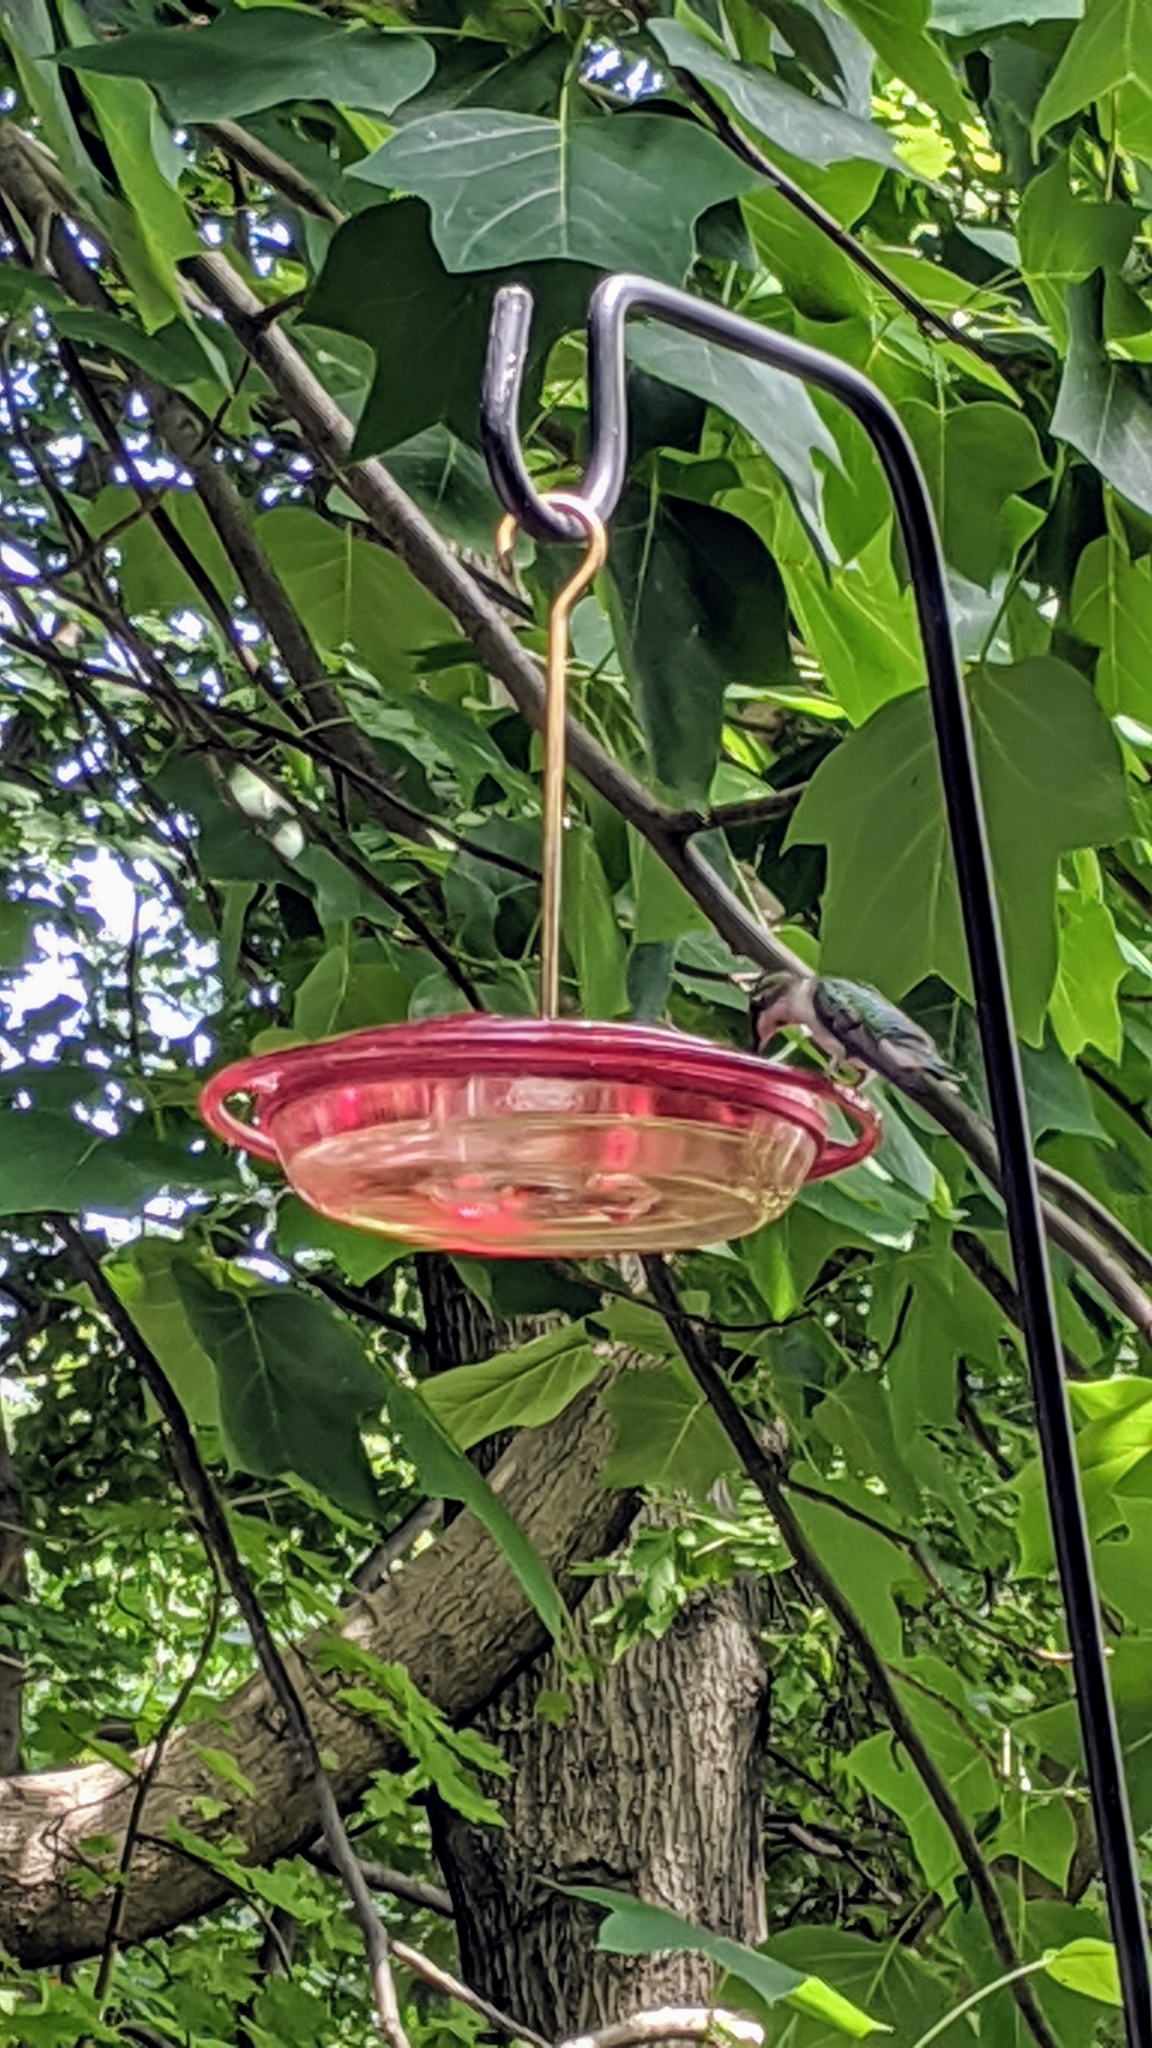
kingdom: Animalia
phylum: Chordata
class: Aves
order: Apodiformes
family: Trochilidae
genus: Archilochus
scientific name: Archilochus colubris
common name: Ruby-throated hummingbird
